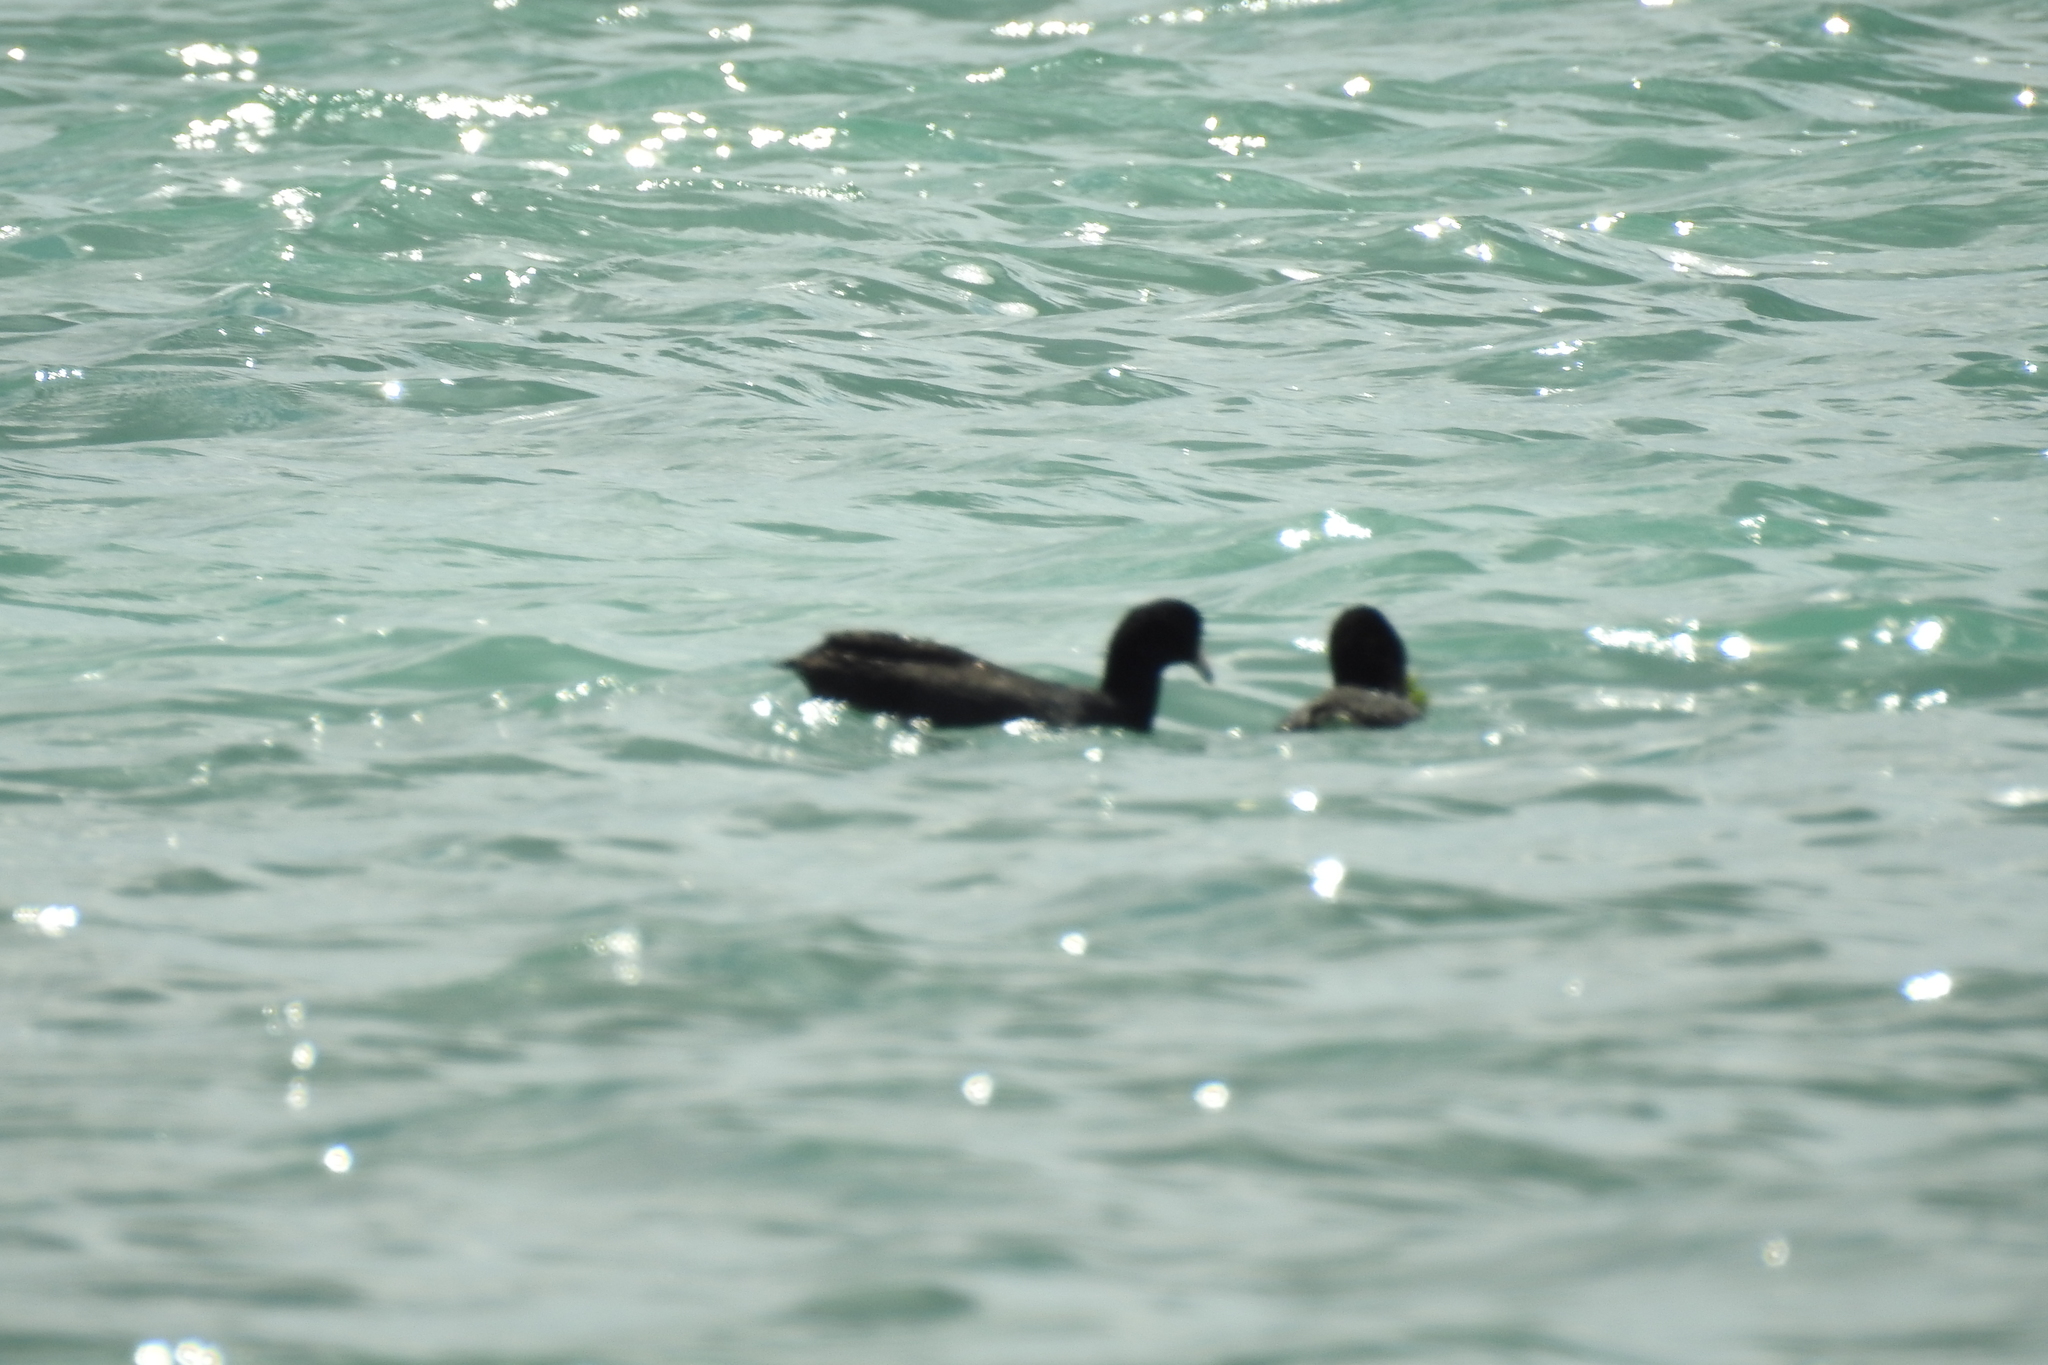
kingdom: Animalia
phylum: Chordata
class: Aves
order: Gruiformes
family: Rallidae
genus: Fulica
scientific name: Fulica americana
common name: American coot
